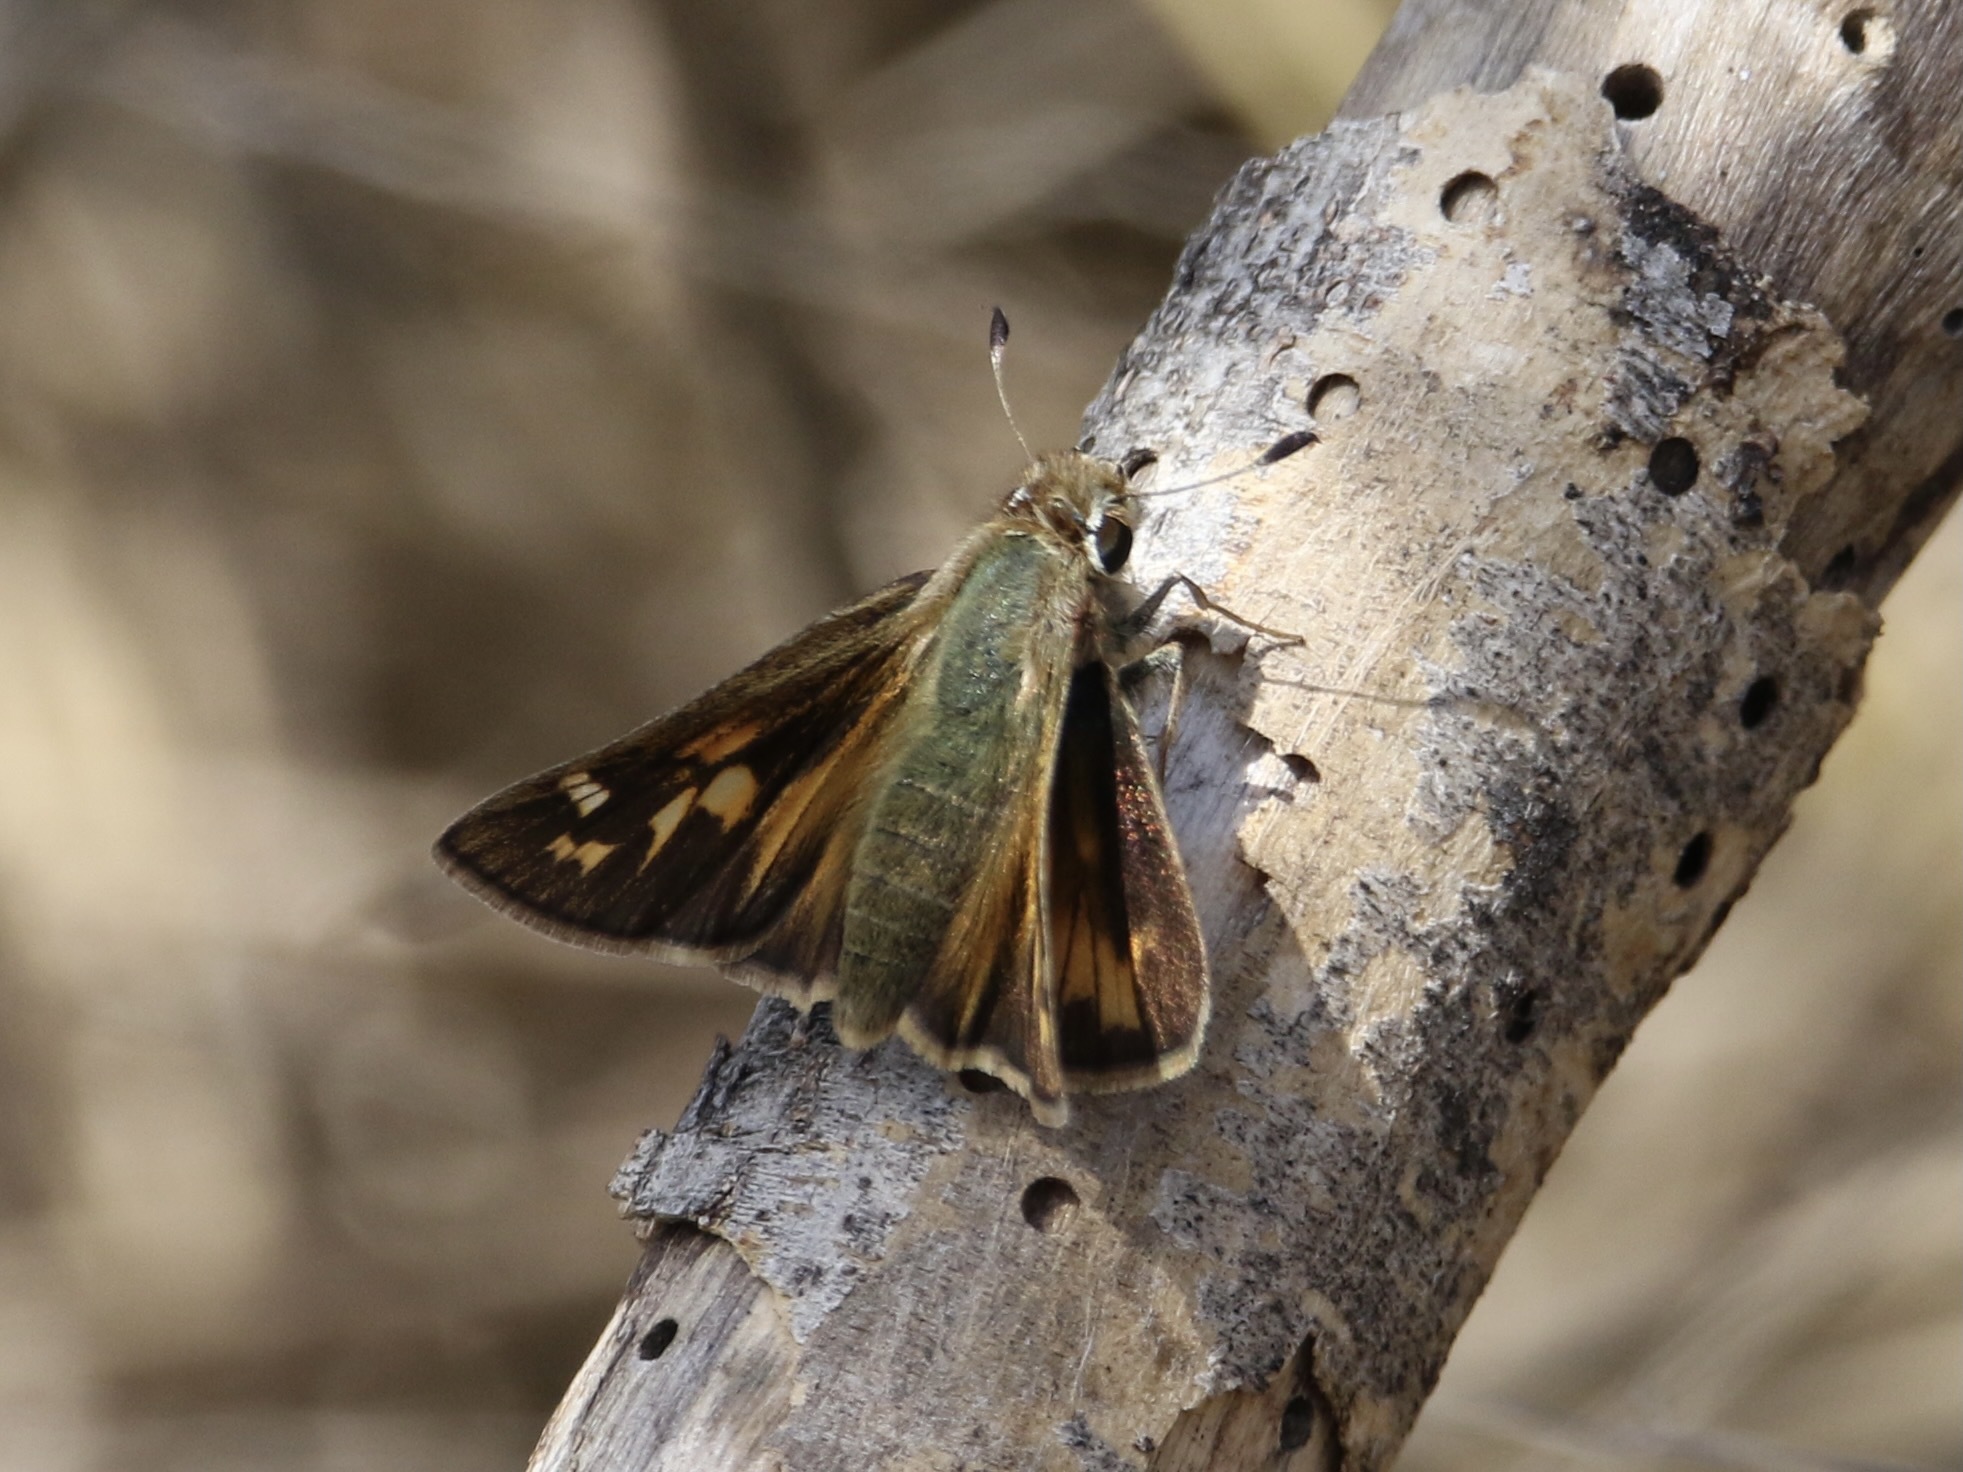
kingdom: Animalia
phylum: Arthropoda
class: Insecta
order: Lepidoptera
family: Hesperiidae
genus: Atalopedes
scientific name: Atalopedes
